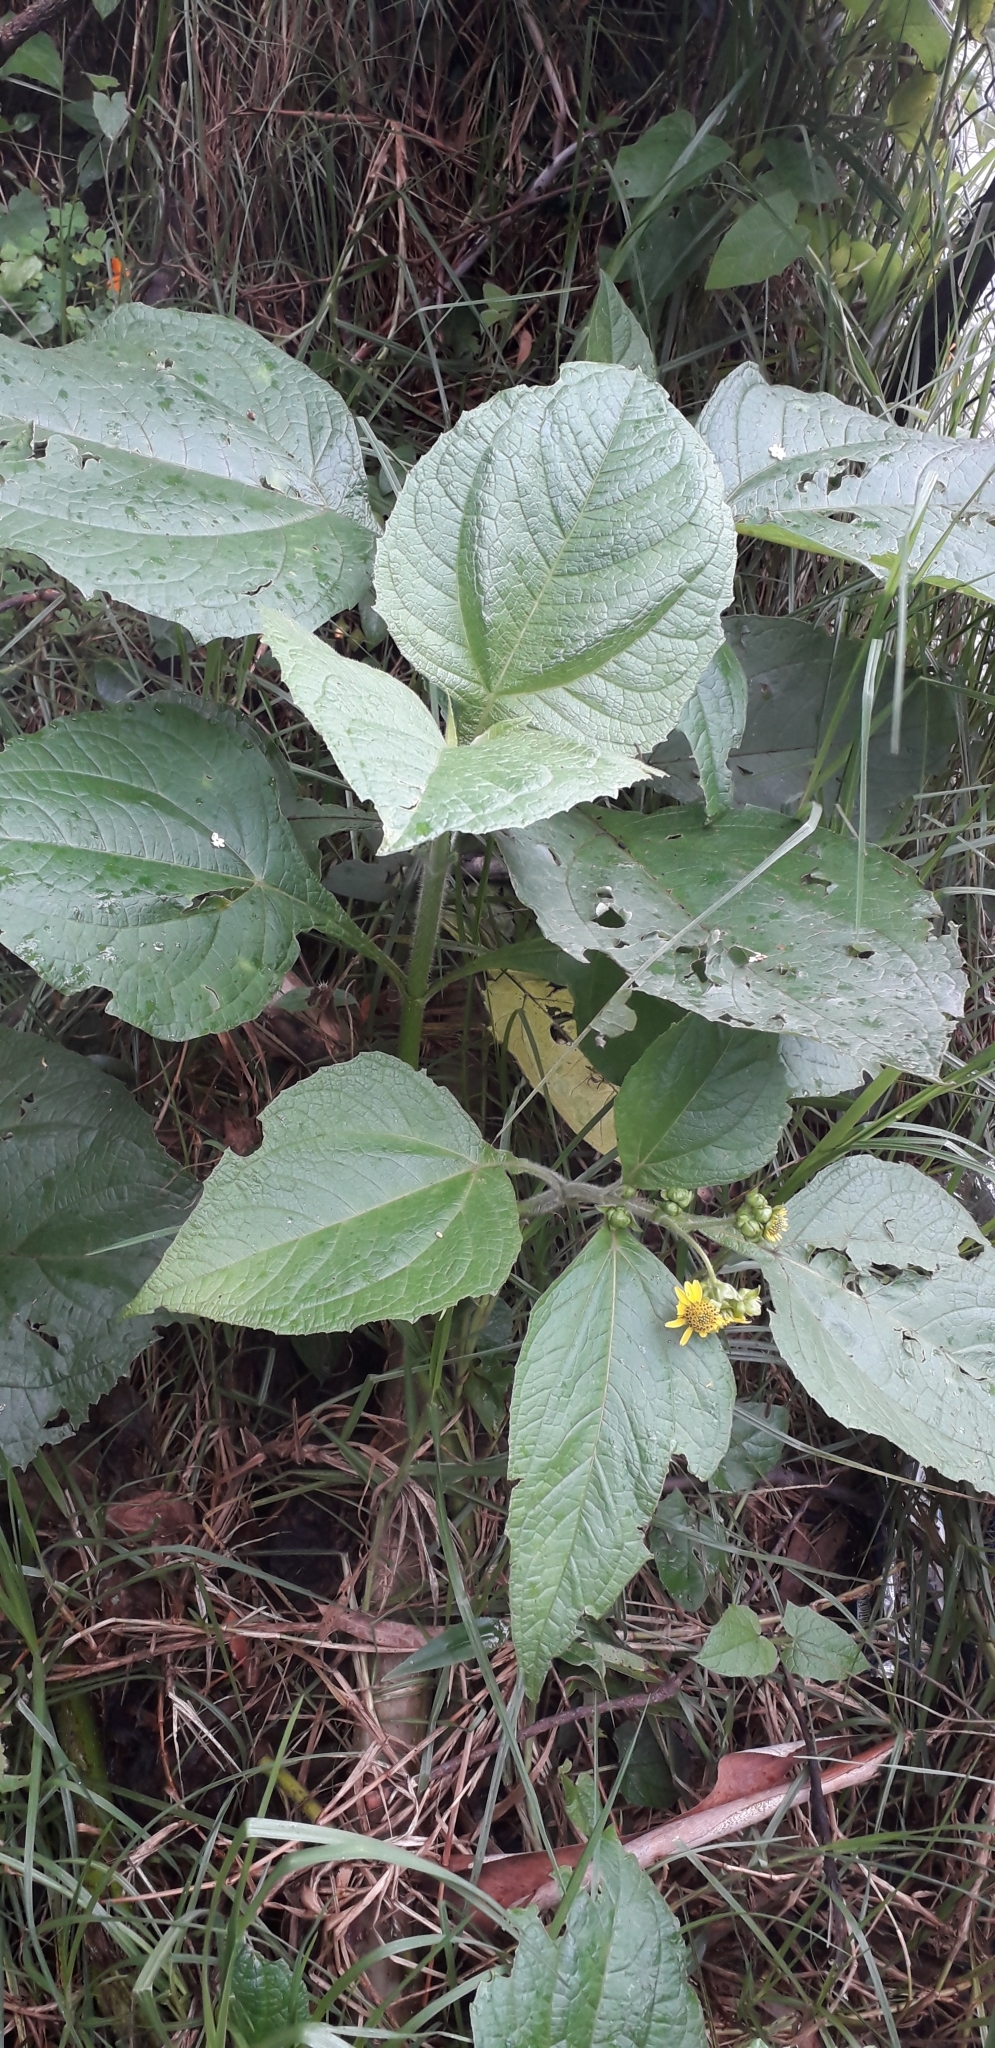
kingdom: Plantae
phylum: Tracheophyta
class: Magnoliopsida
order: Asterales
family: Asteraceae
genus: Smallanthus
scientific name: Smallanthus pyramidalis
